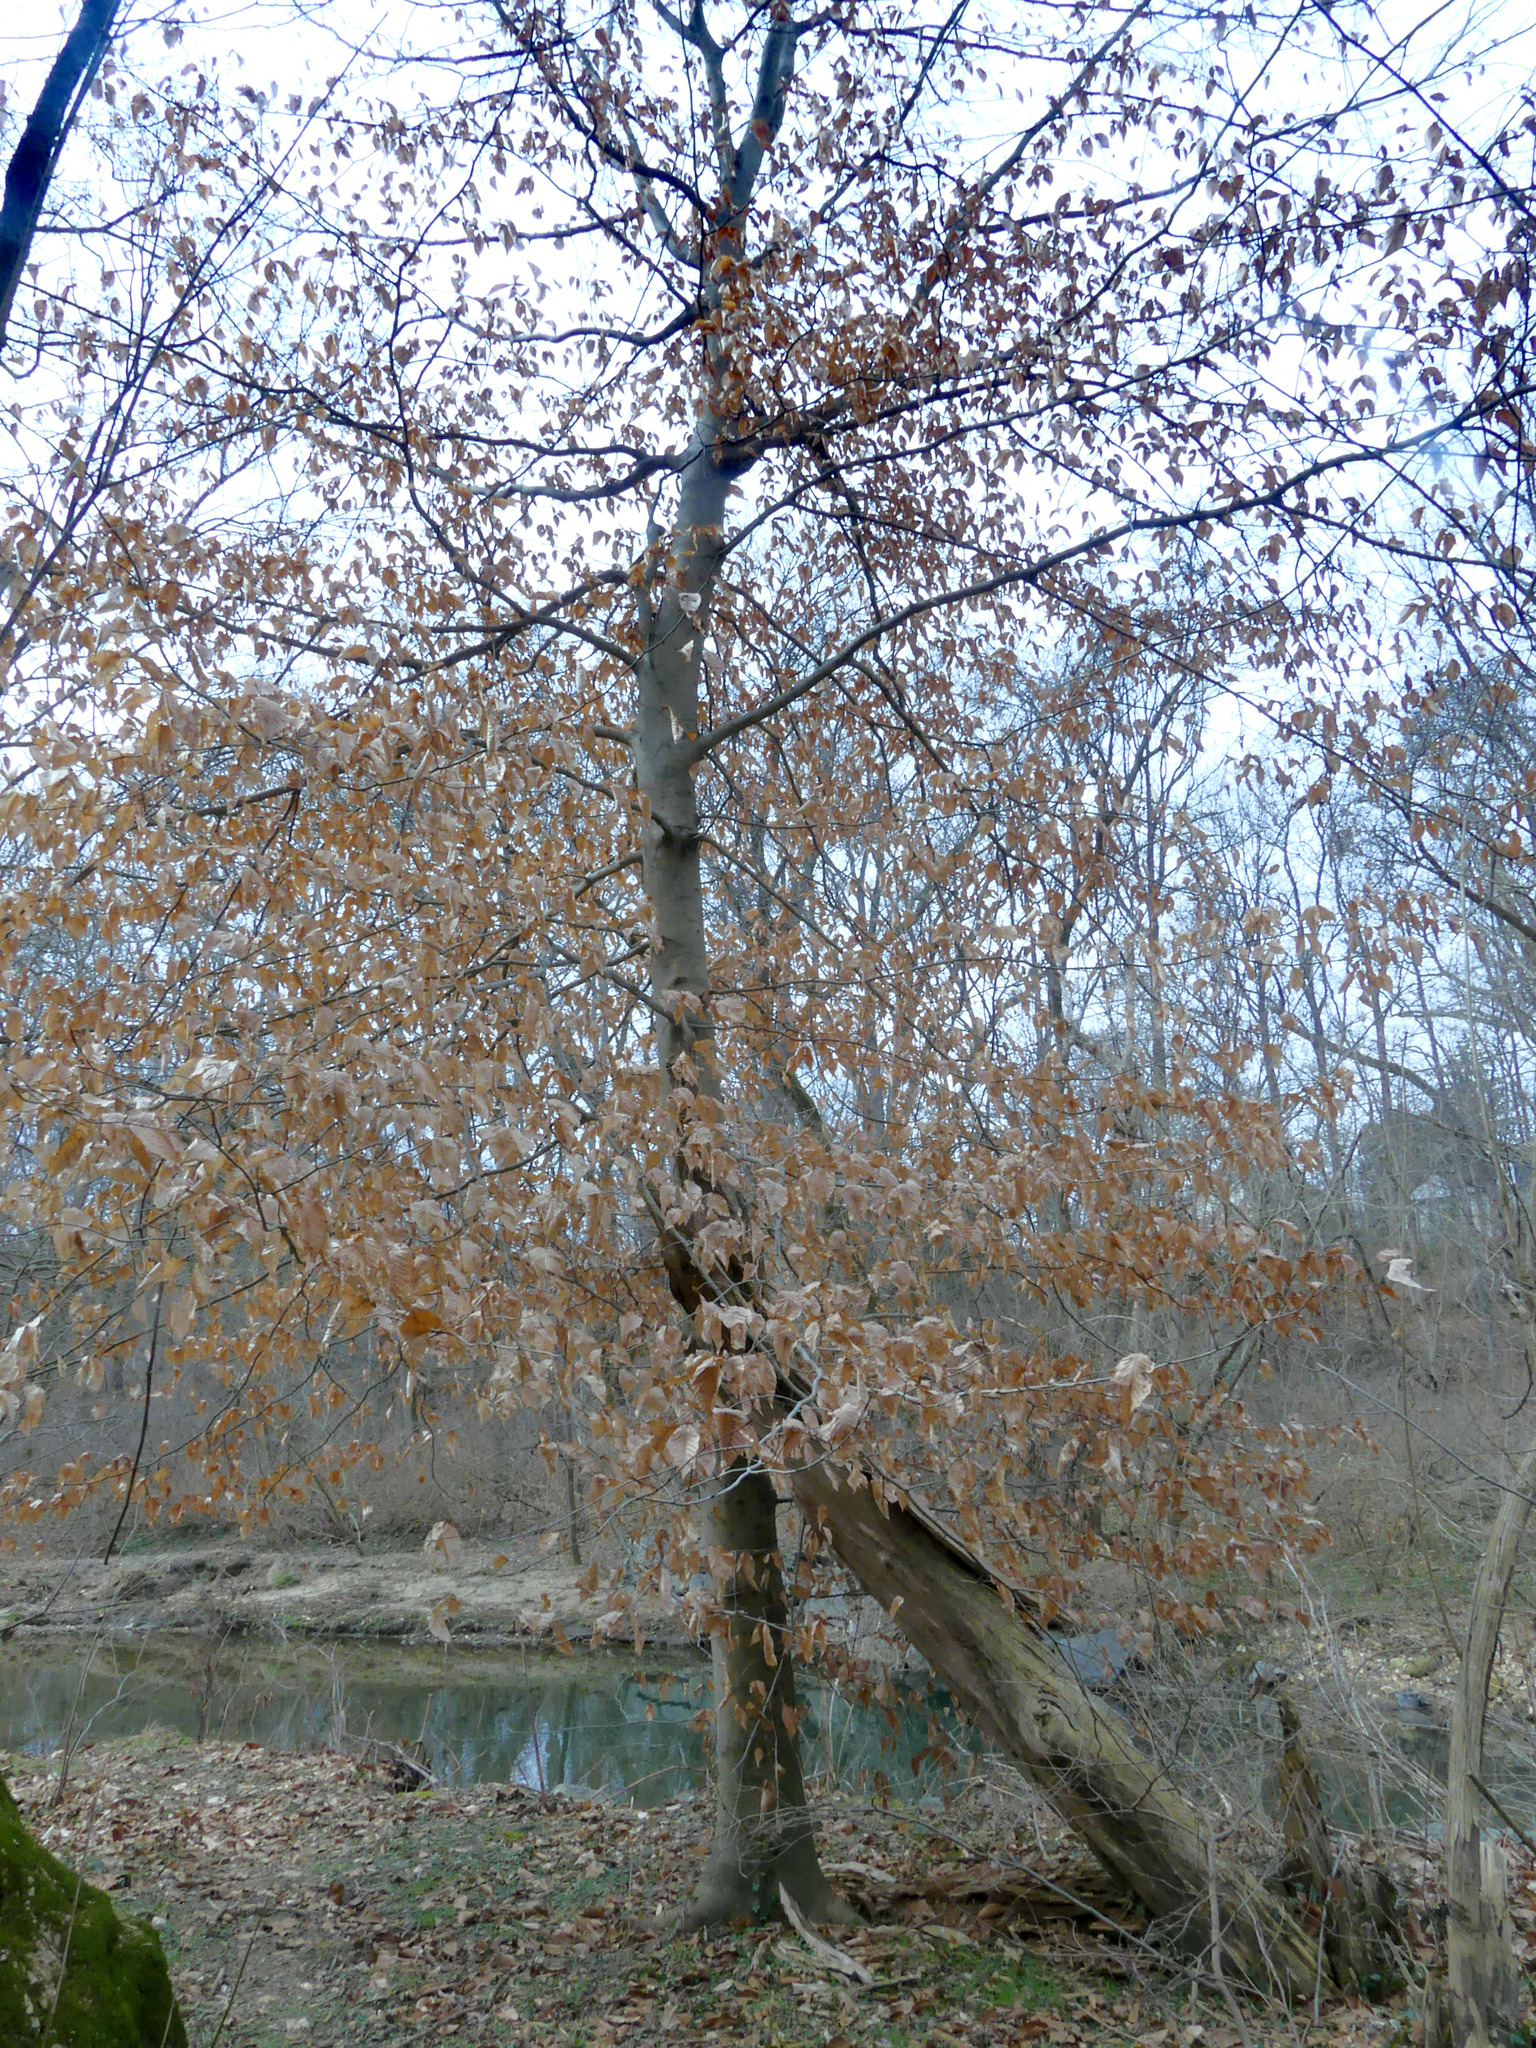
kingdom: Plantae
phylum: Tracheophyta
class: Magnoliopsida
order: Fagales
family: Fagaceae
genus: Fagus
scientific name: Fagus grandifolia
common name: American beech
